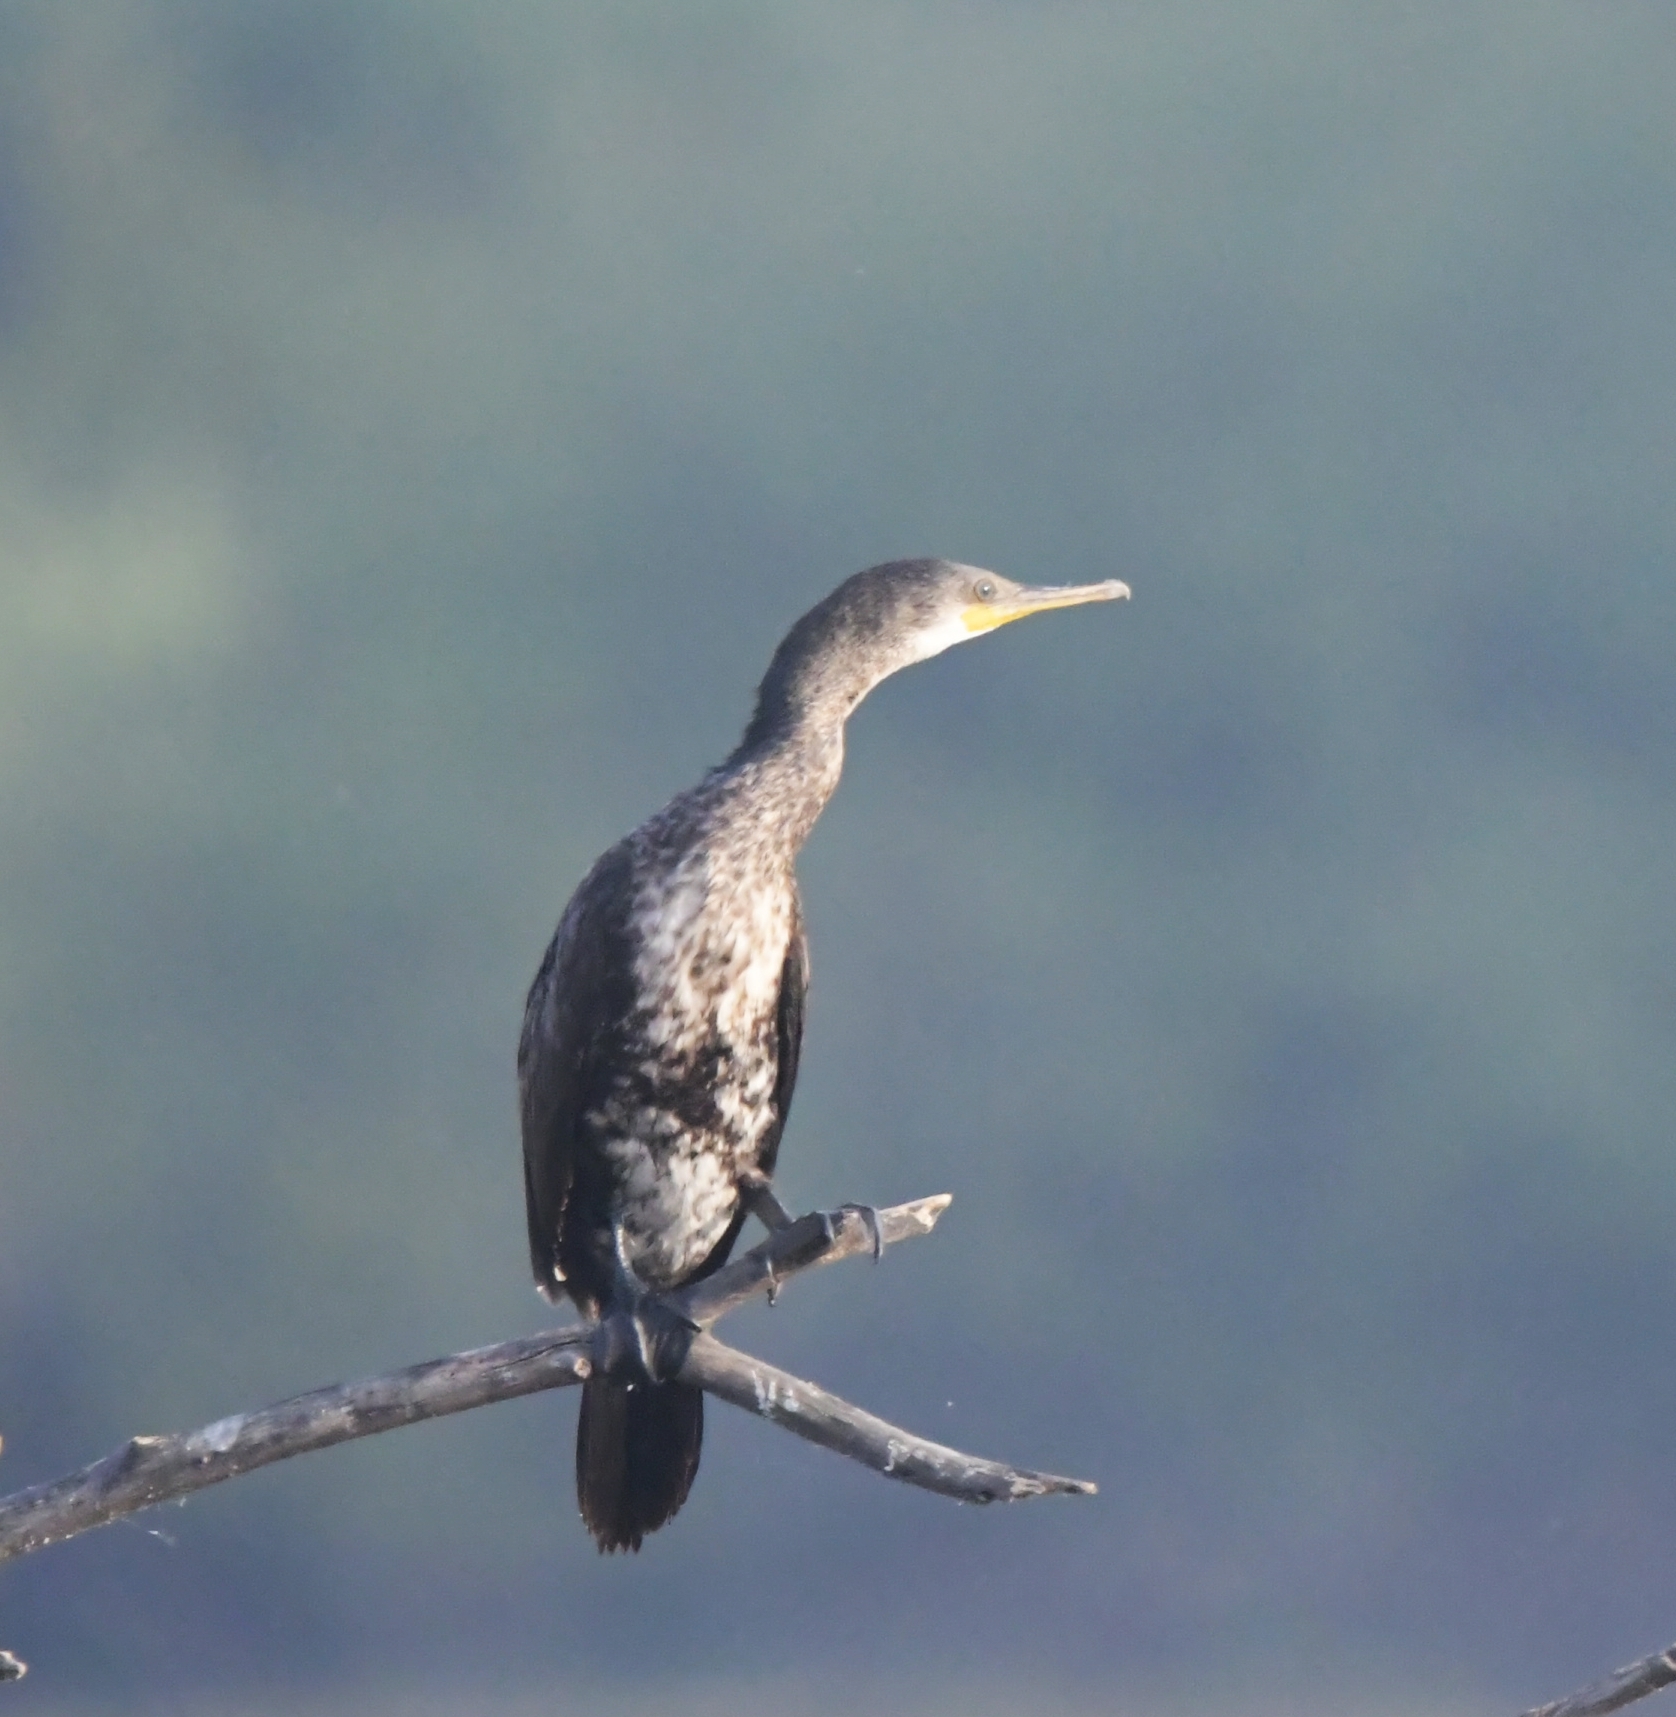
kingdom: Animalia
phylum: Chordata
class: Aves
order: Suliformes
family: Phalacrocoracidae
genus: Phalacrocorax
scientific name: Phalacrocorax fuscicollis
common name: Indian cormorant
